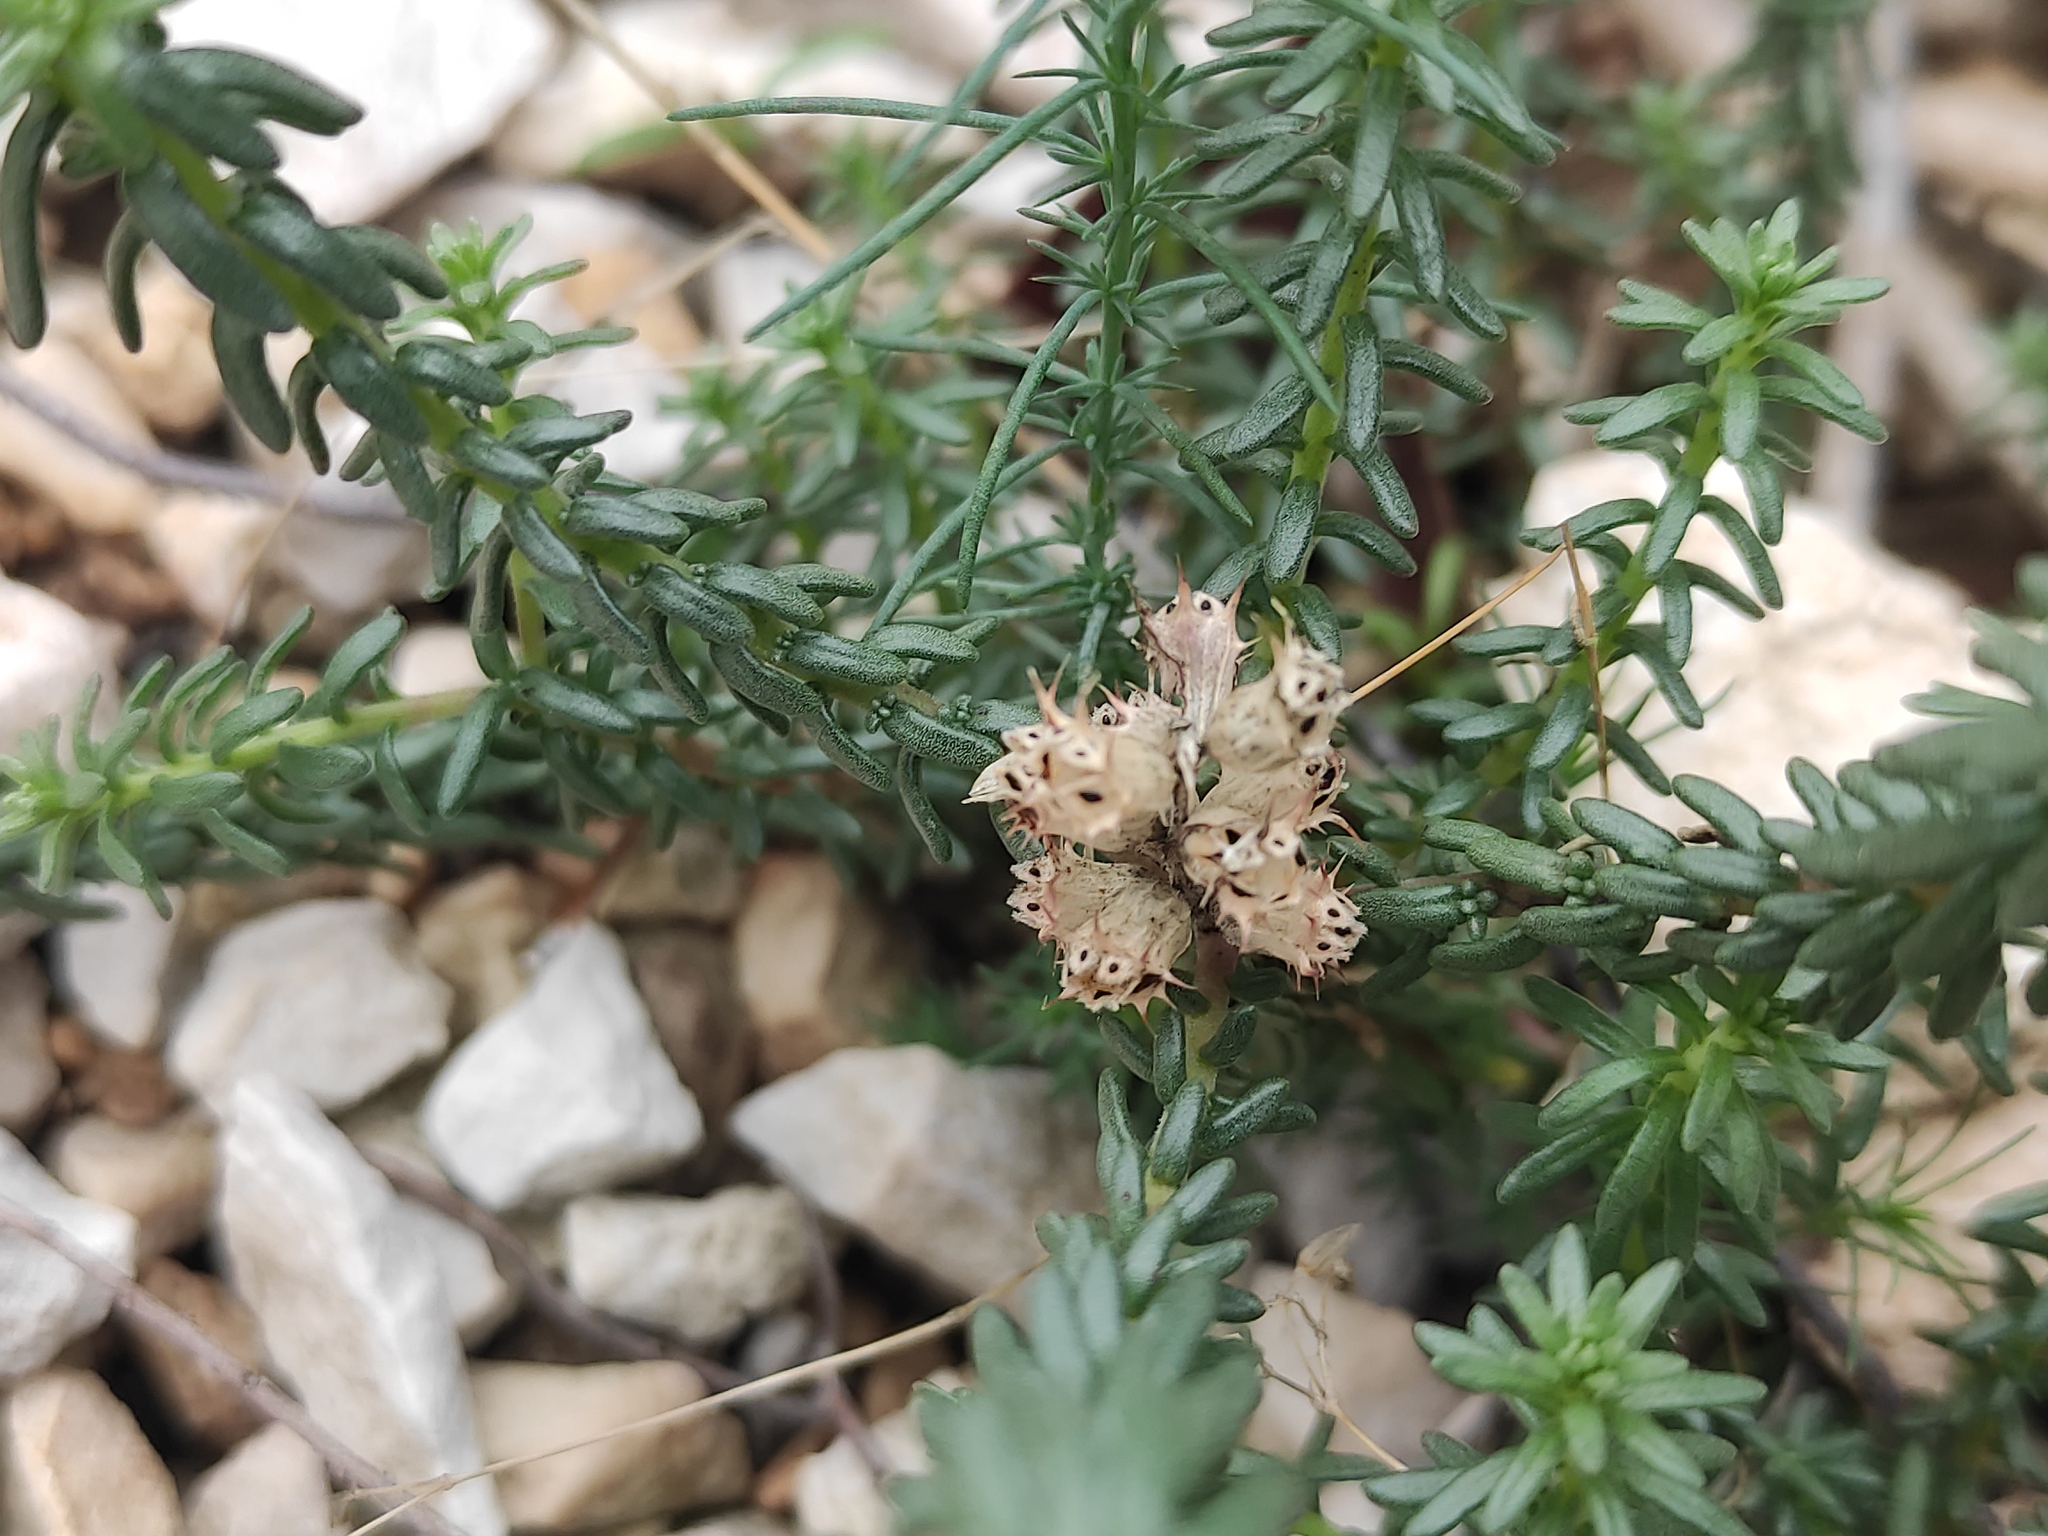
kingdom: Plantae
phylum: Tracheophyta
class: Magnoliopsida
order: Ericales
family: Primulaceae
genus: Coris
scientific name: Coris monspeliensis
